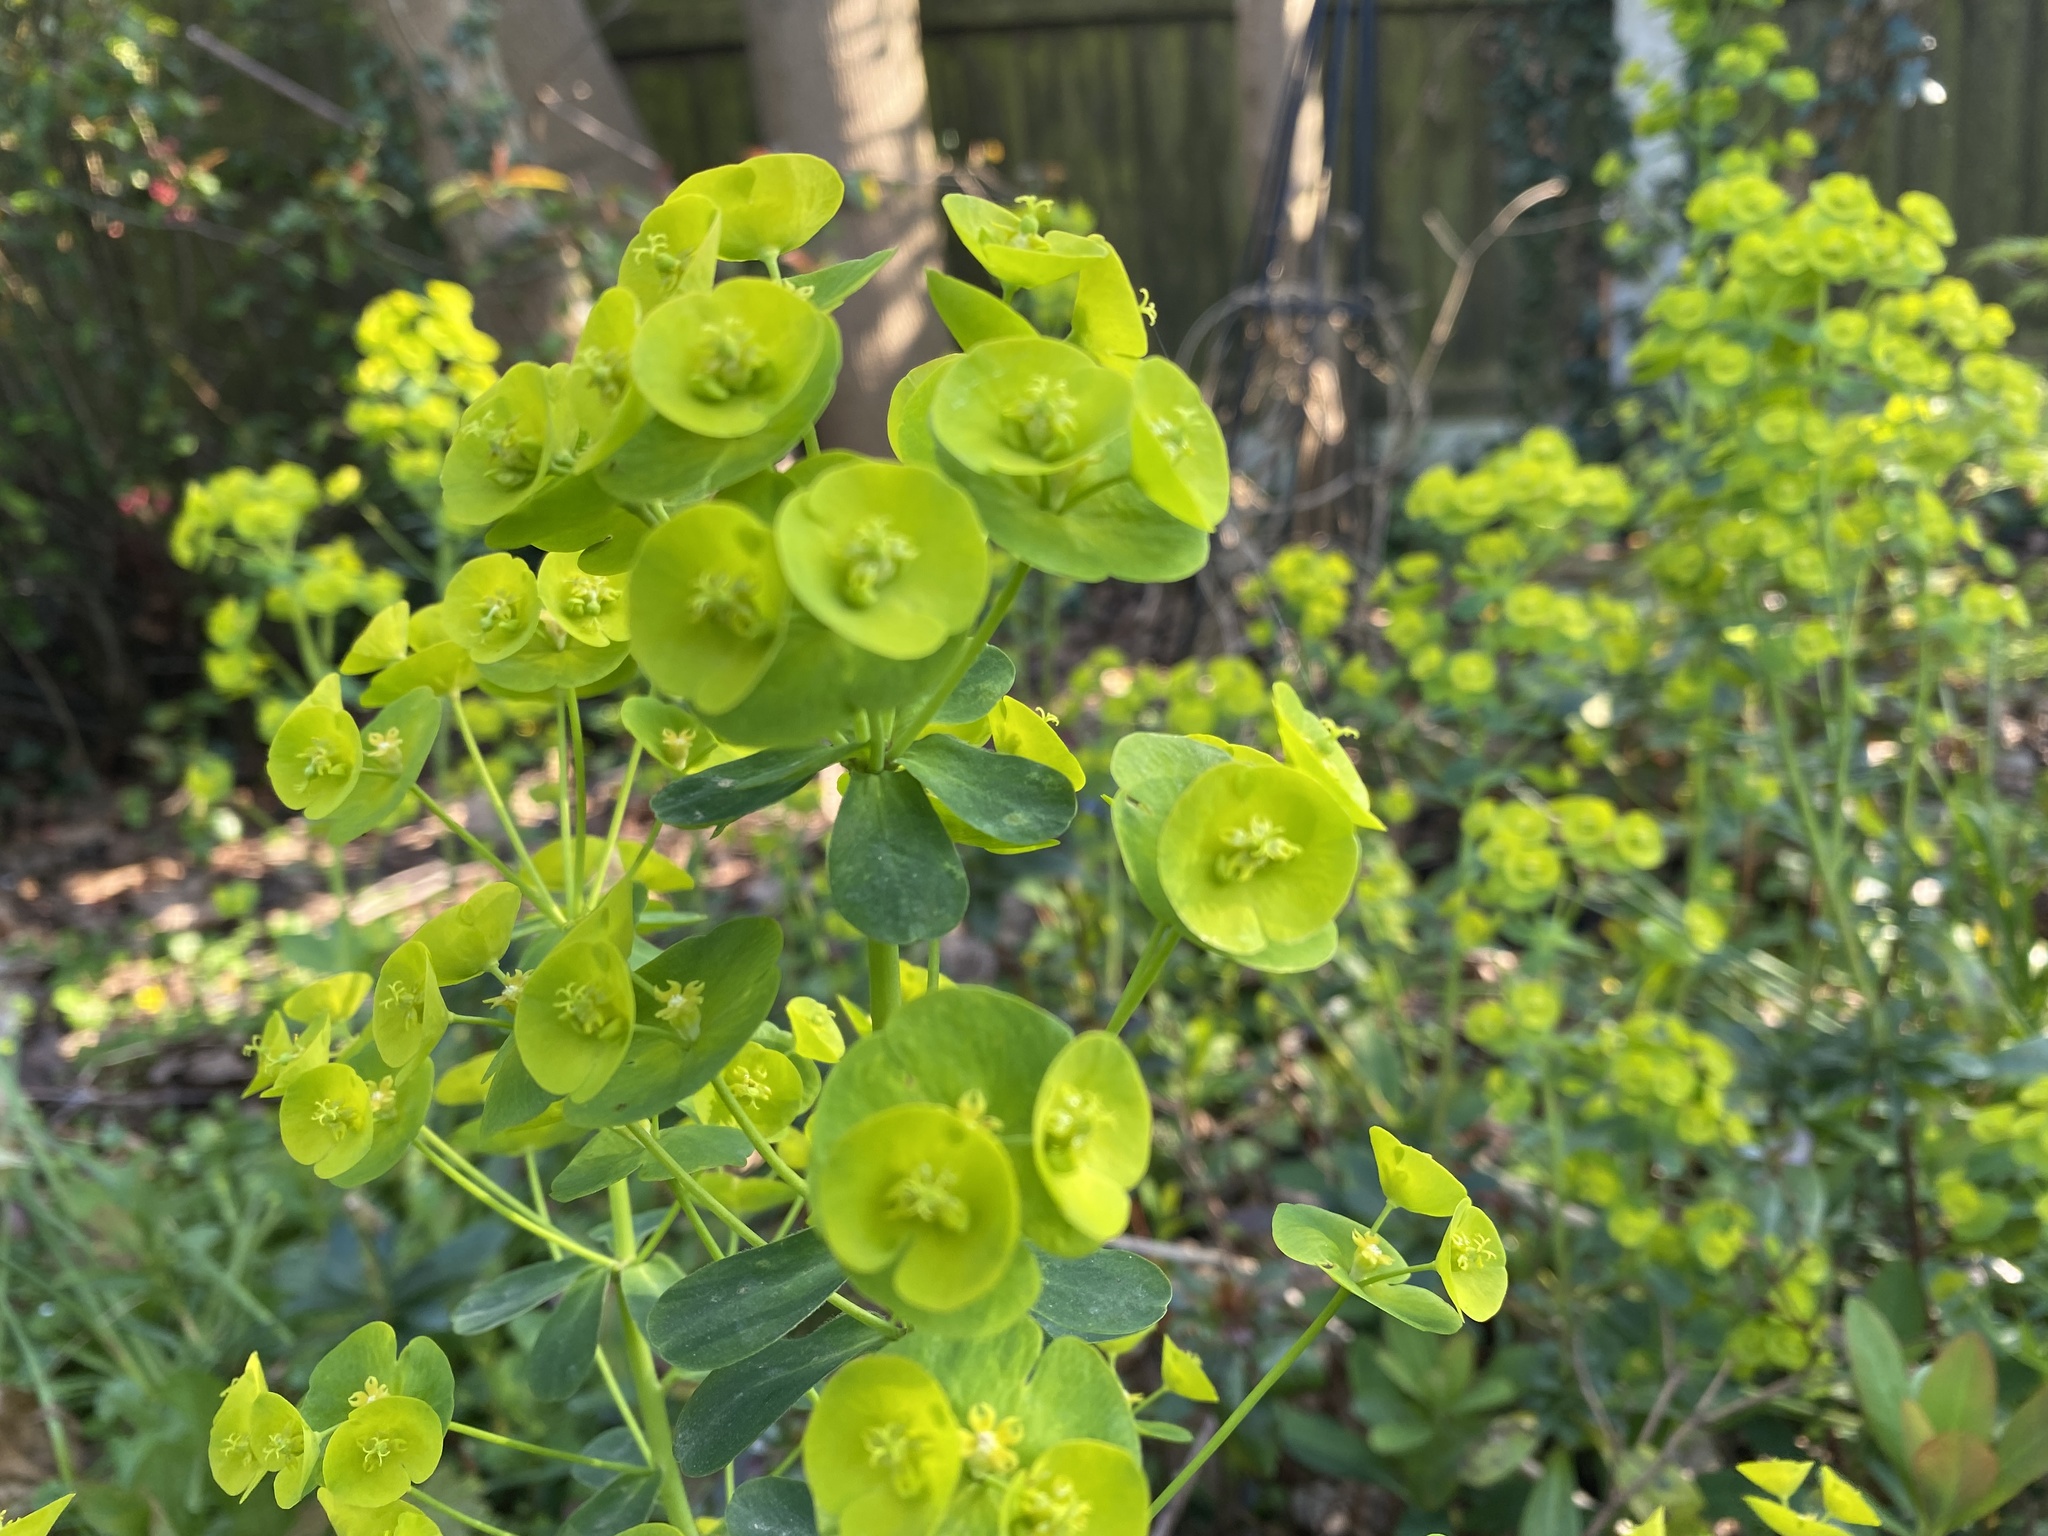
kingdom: Plantae
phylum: Tracheophyta
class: Magnoliopsida
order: Malpighiales
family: Euphorbiaceae
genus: Euphorbia
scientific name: Euphorbia amygdaloides
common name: Wood spurge
